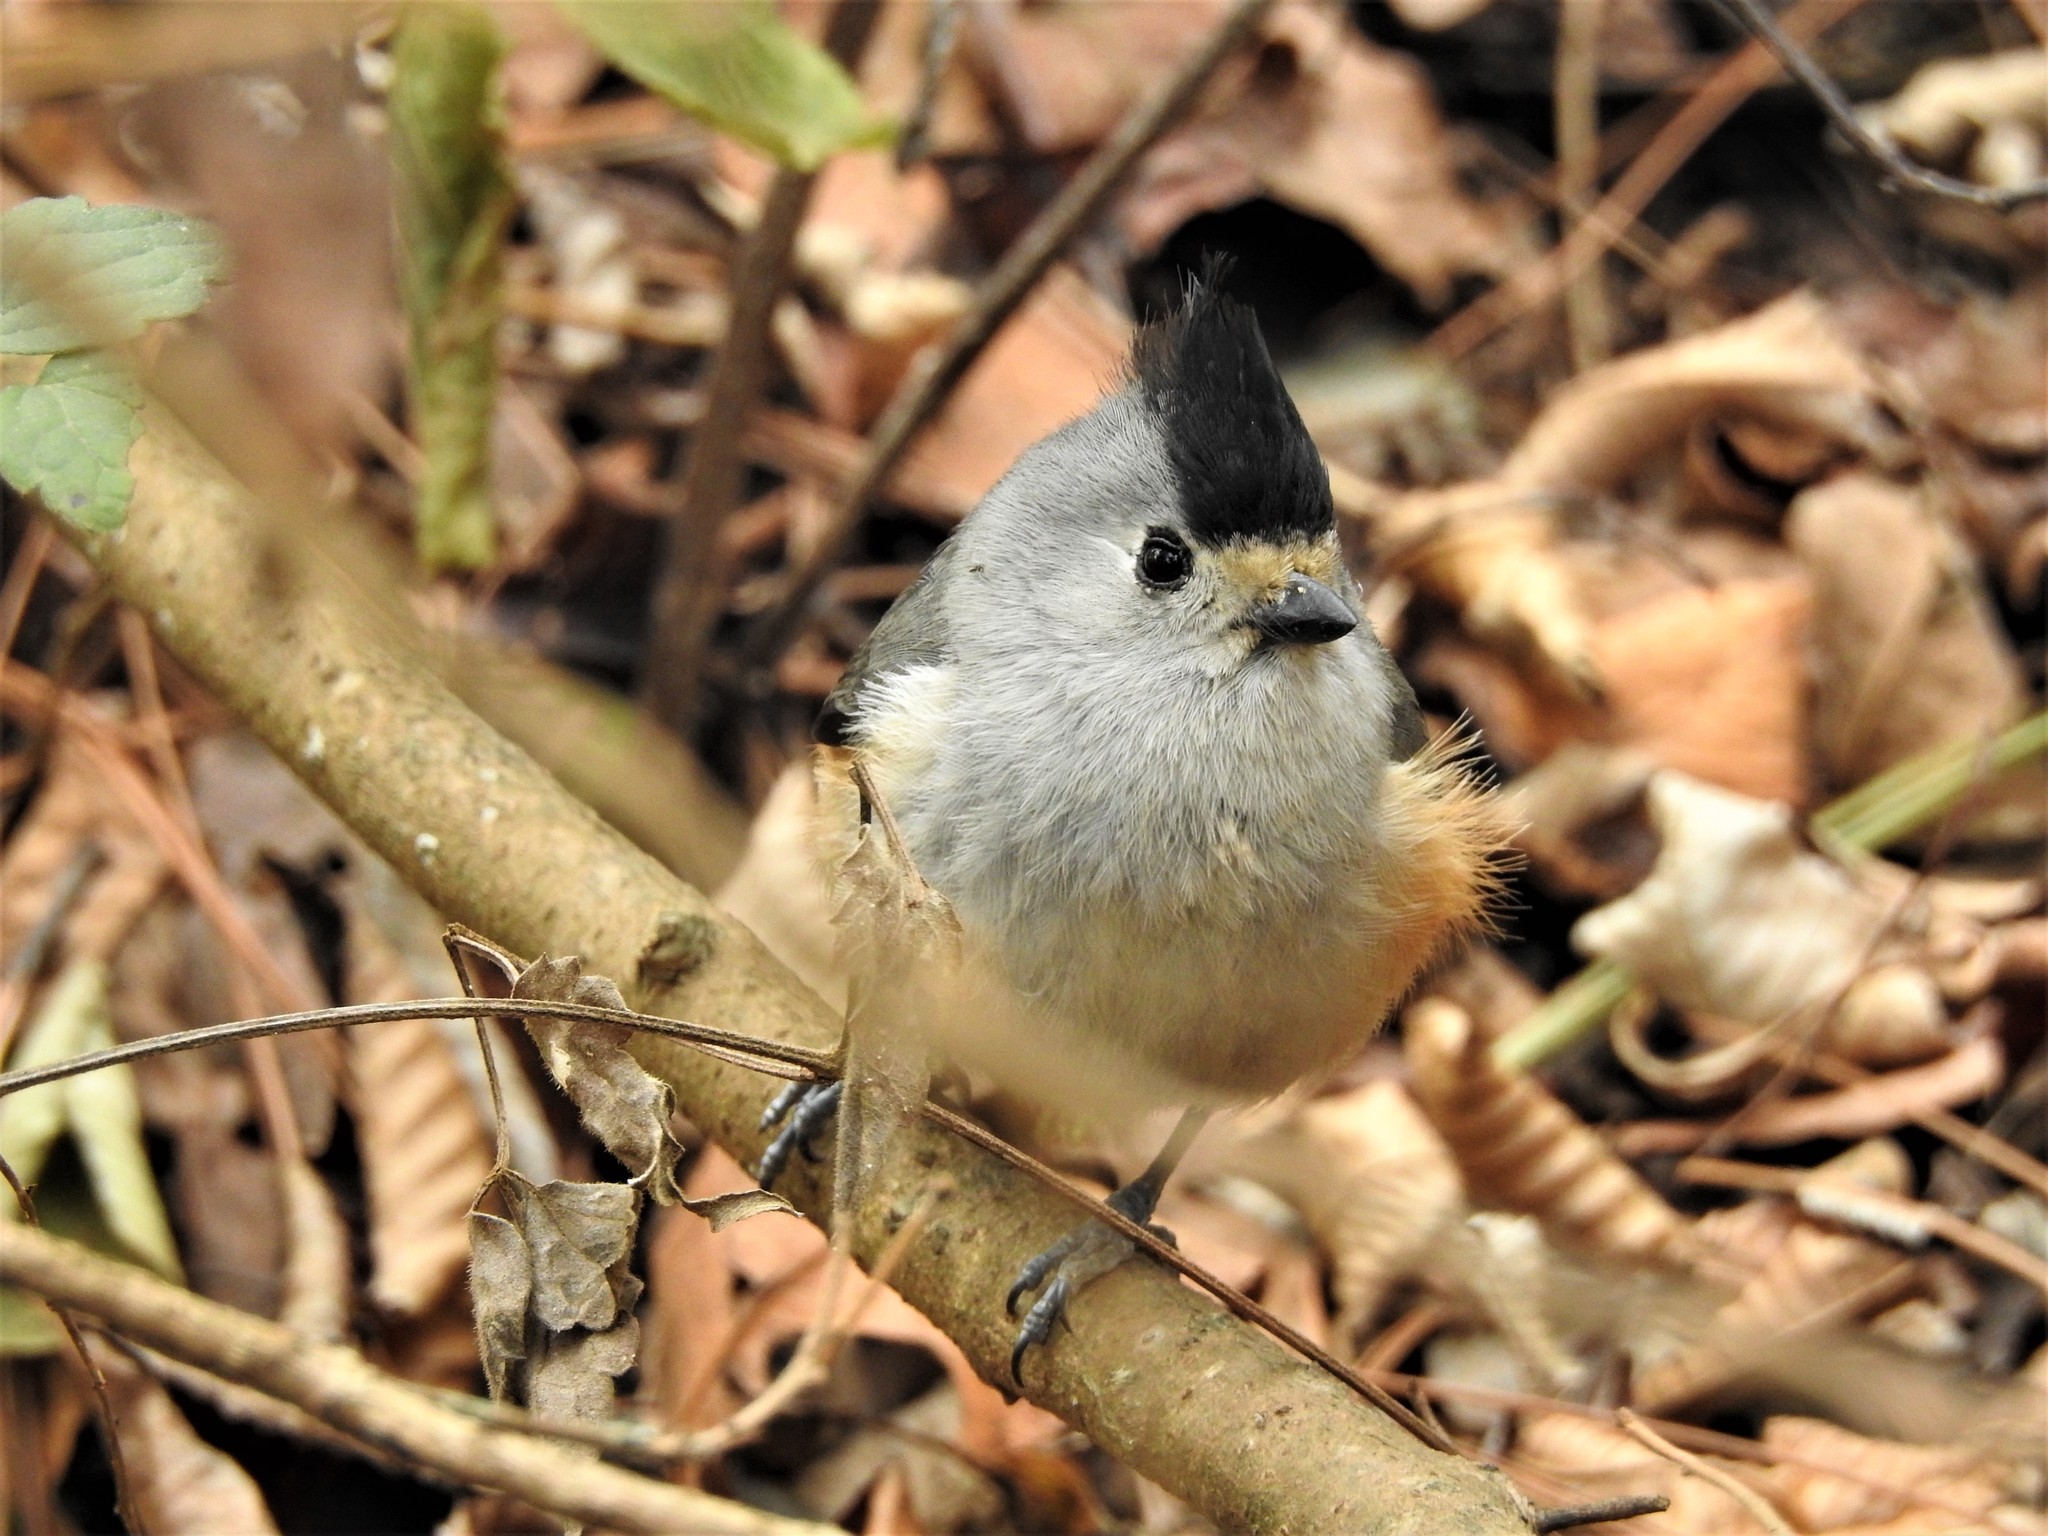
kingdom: Animalia
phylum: Chordata
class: Aves
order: Passeriformes
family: Paridae
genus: Baeolophus
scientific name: Baeolophus atricristatus
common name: Black-crested titmouse
